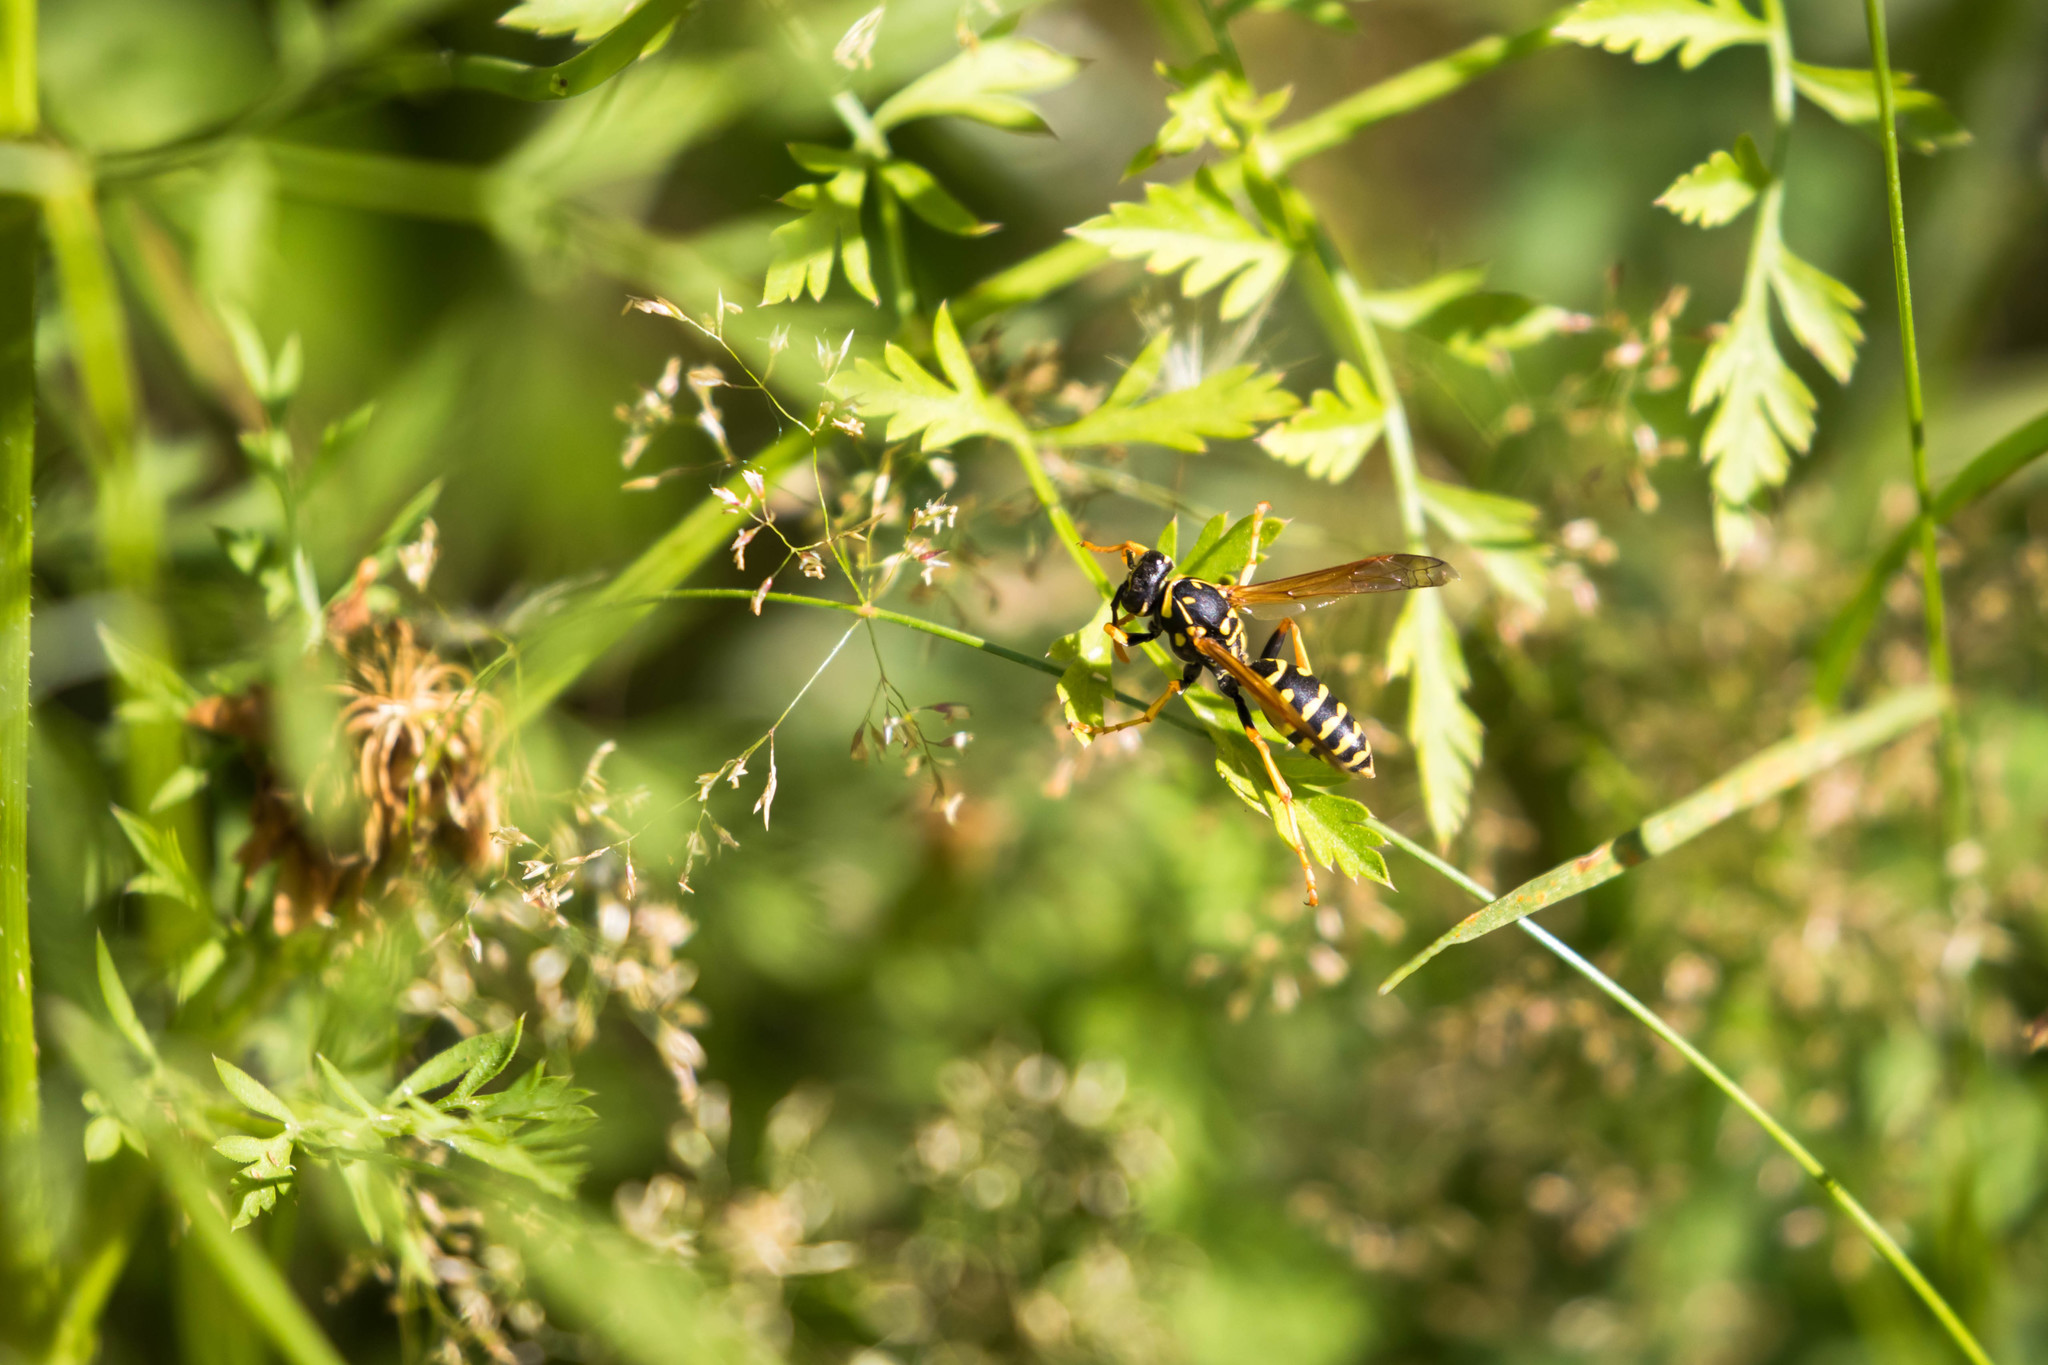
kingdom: Animalia
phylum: Arthropoda
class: Insecta
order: Hymenoptera
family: Eumenidae
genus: Polistes
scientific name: Polistes dominula
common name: Paper wasp
